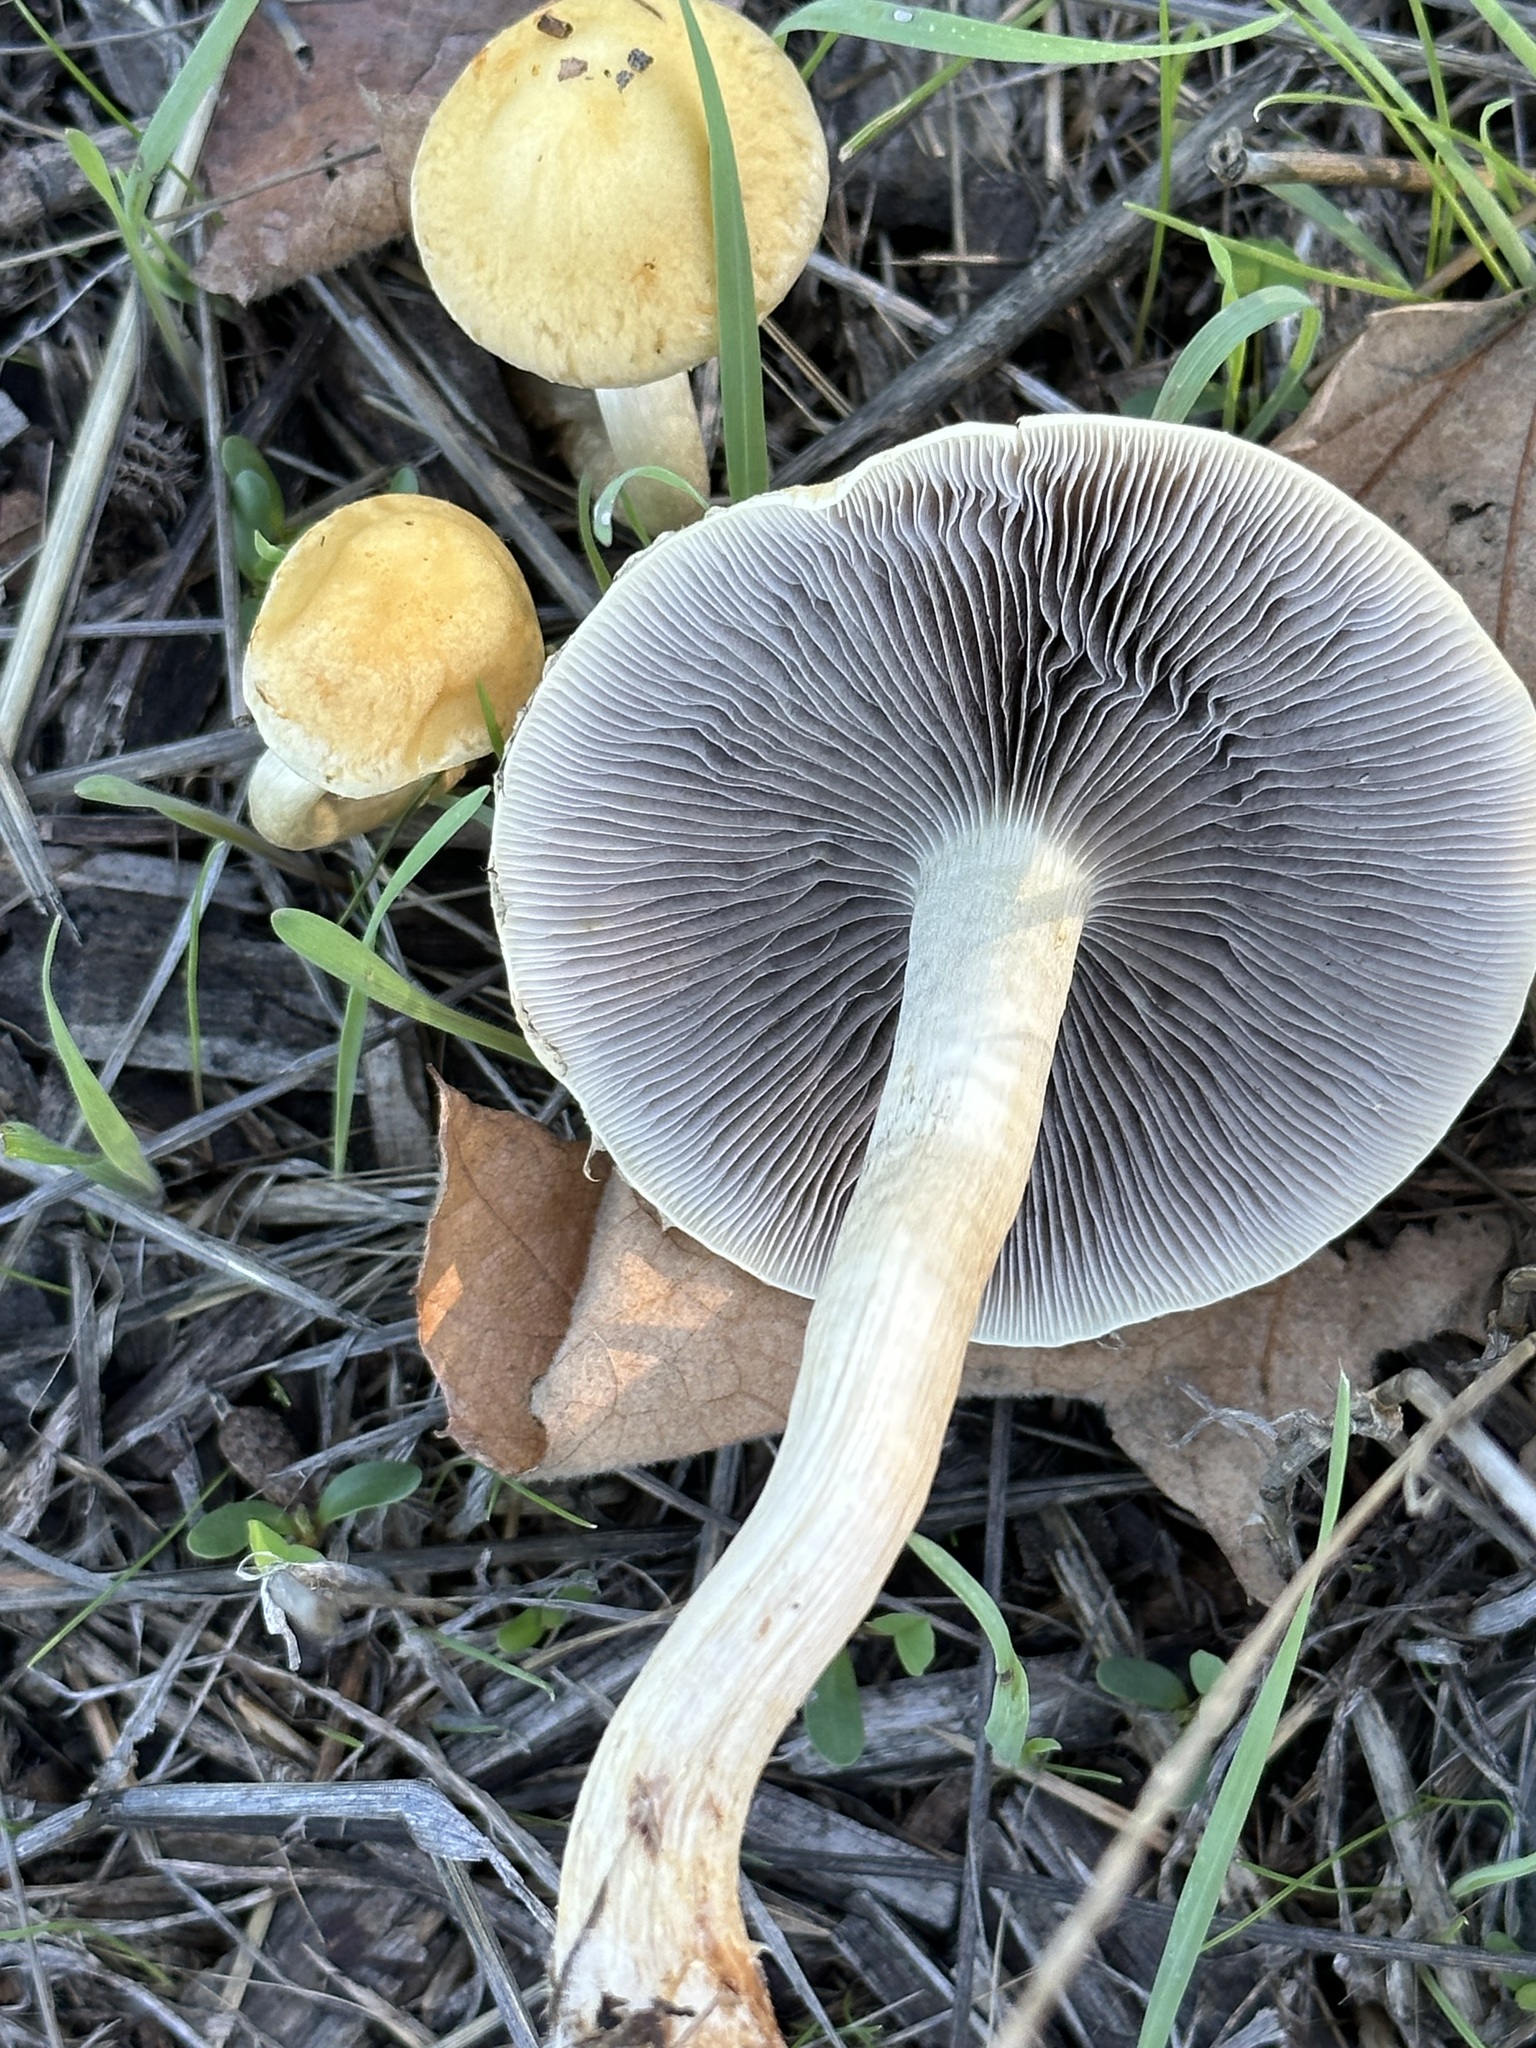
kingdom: Fungi
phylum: Basidiomycota
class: Agaricomycetes
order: Agaricales
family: Strophariaceae
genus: Leratiomyces
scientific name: Leratiomyces percevalii
